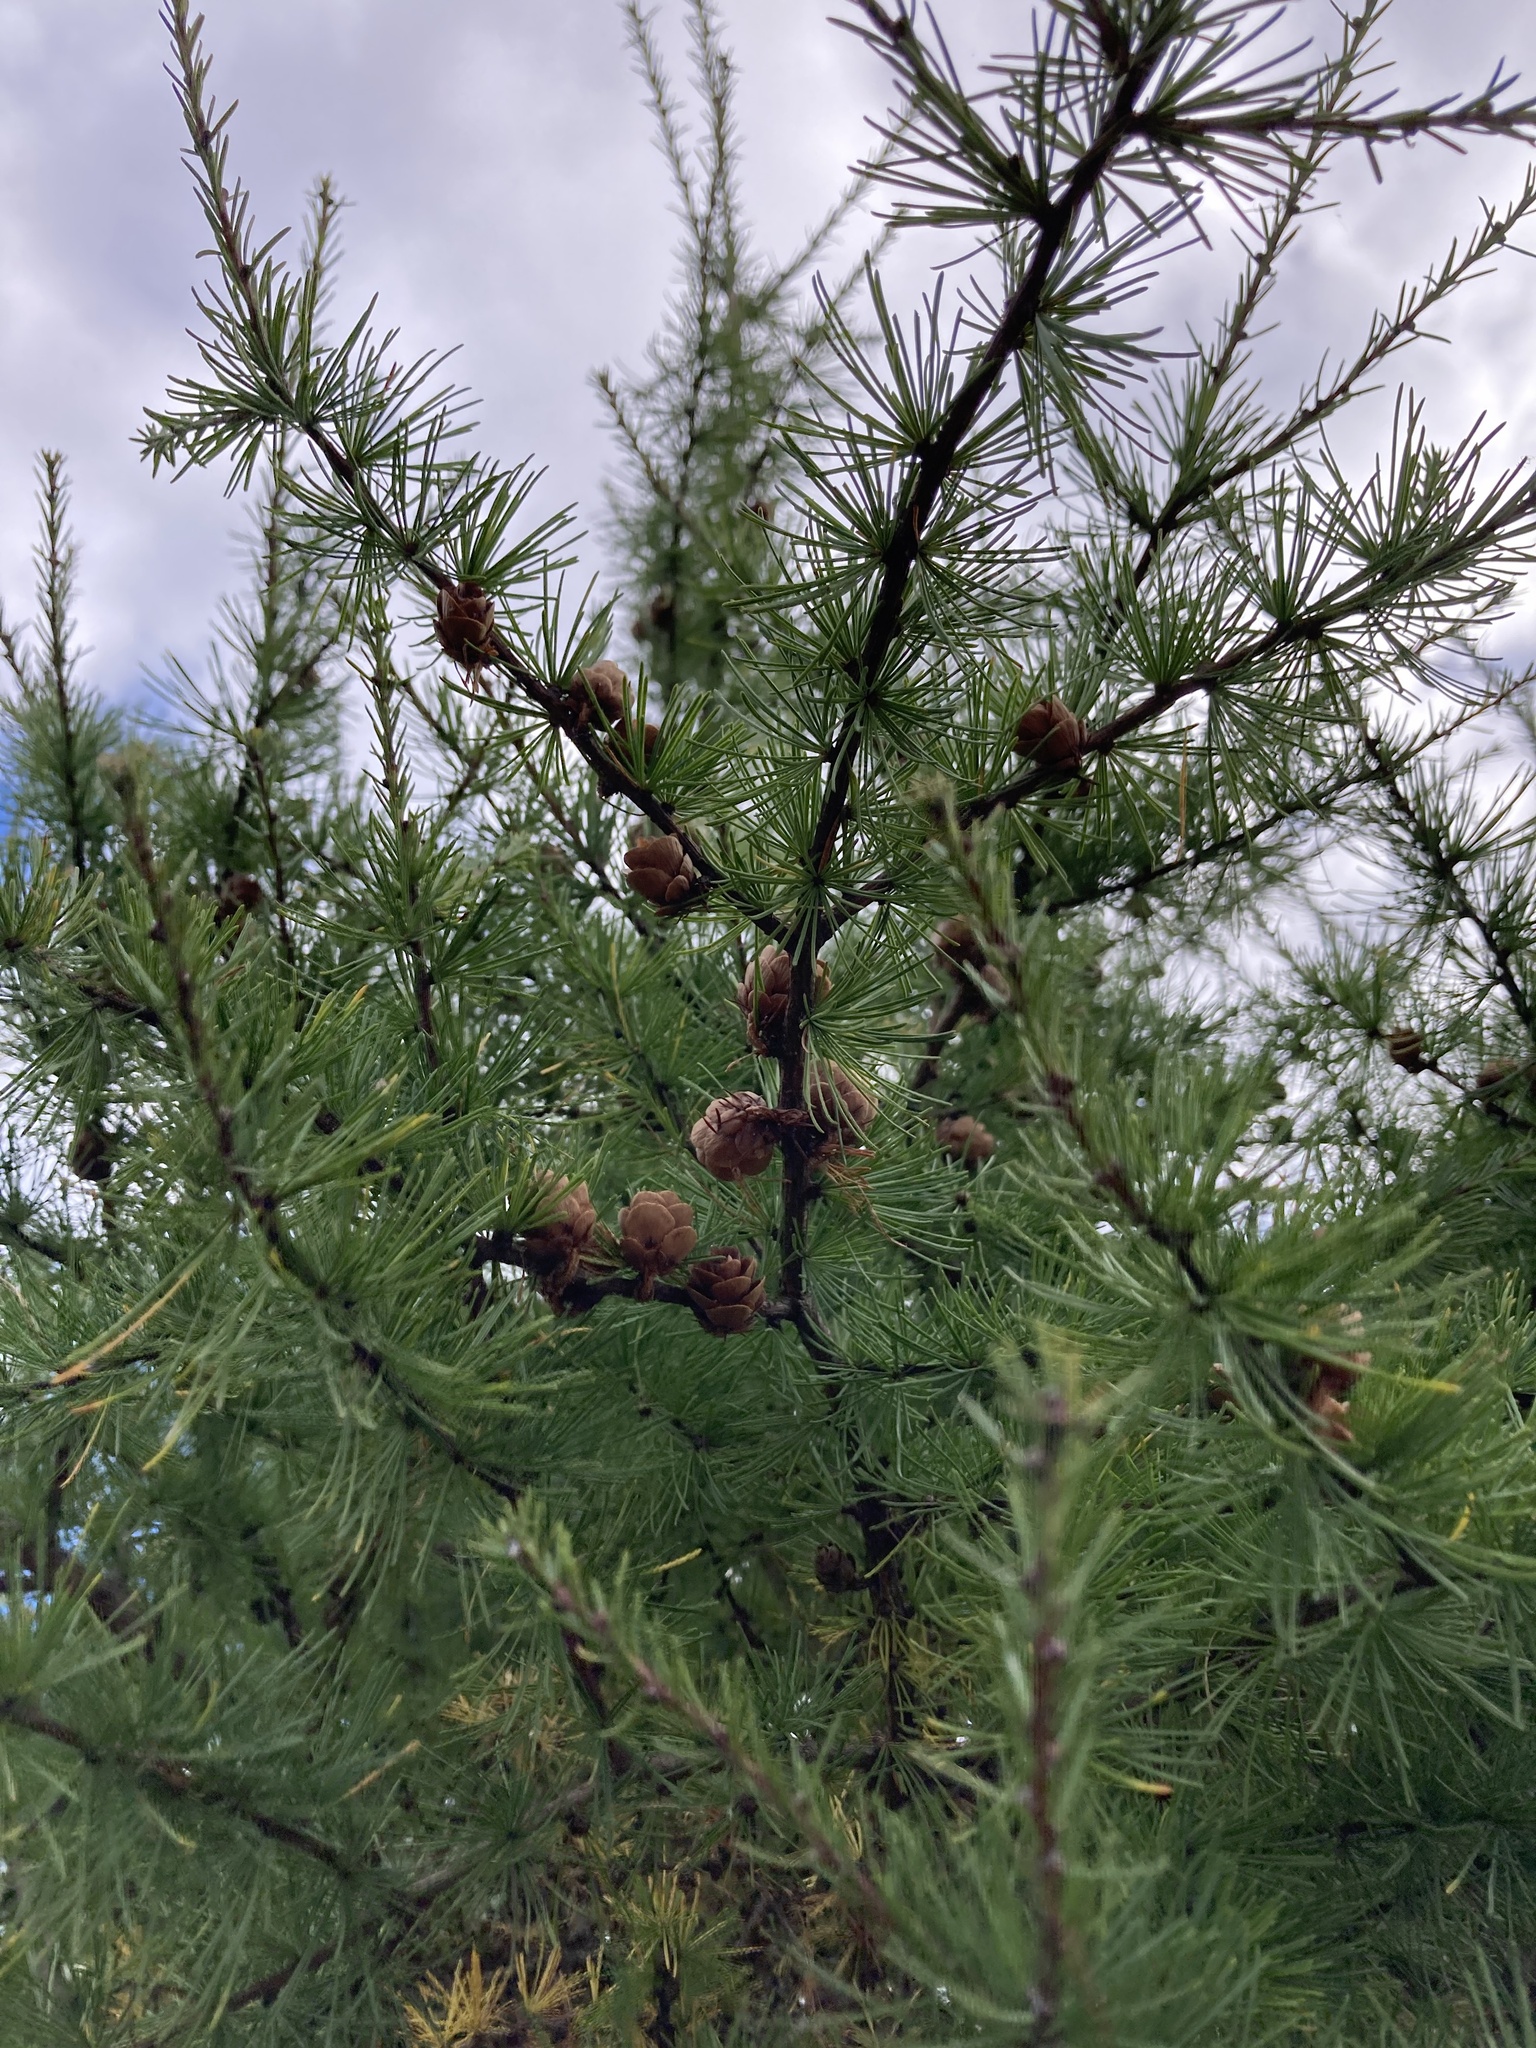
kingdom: Plantae
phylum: Tracheophyta
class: Pinopsida
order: Pinales
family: Pinaceae
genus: Larix
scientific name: Larix laricina
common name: American larch
